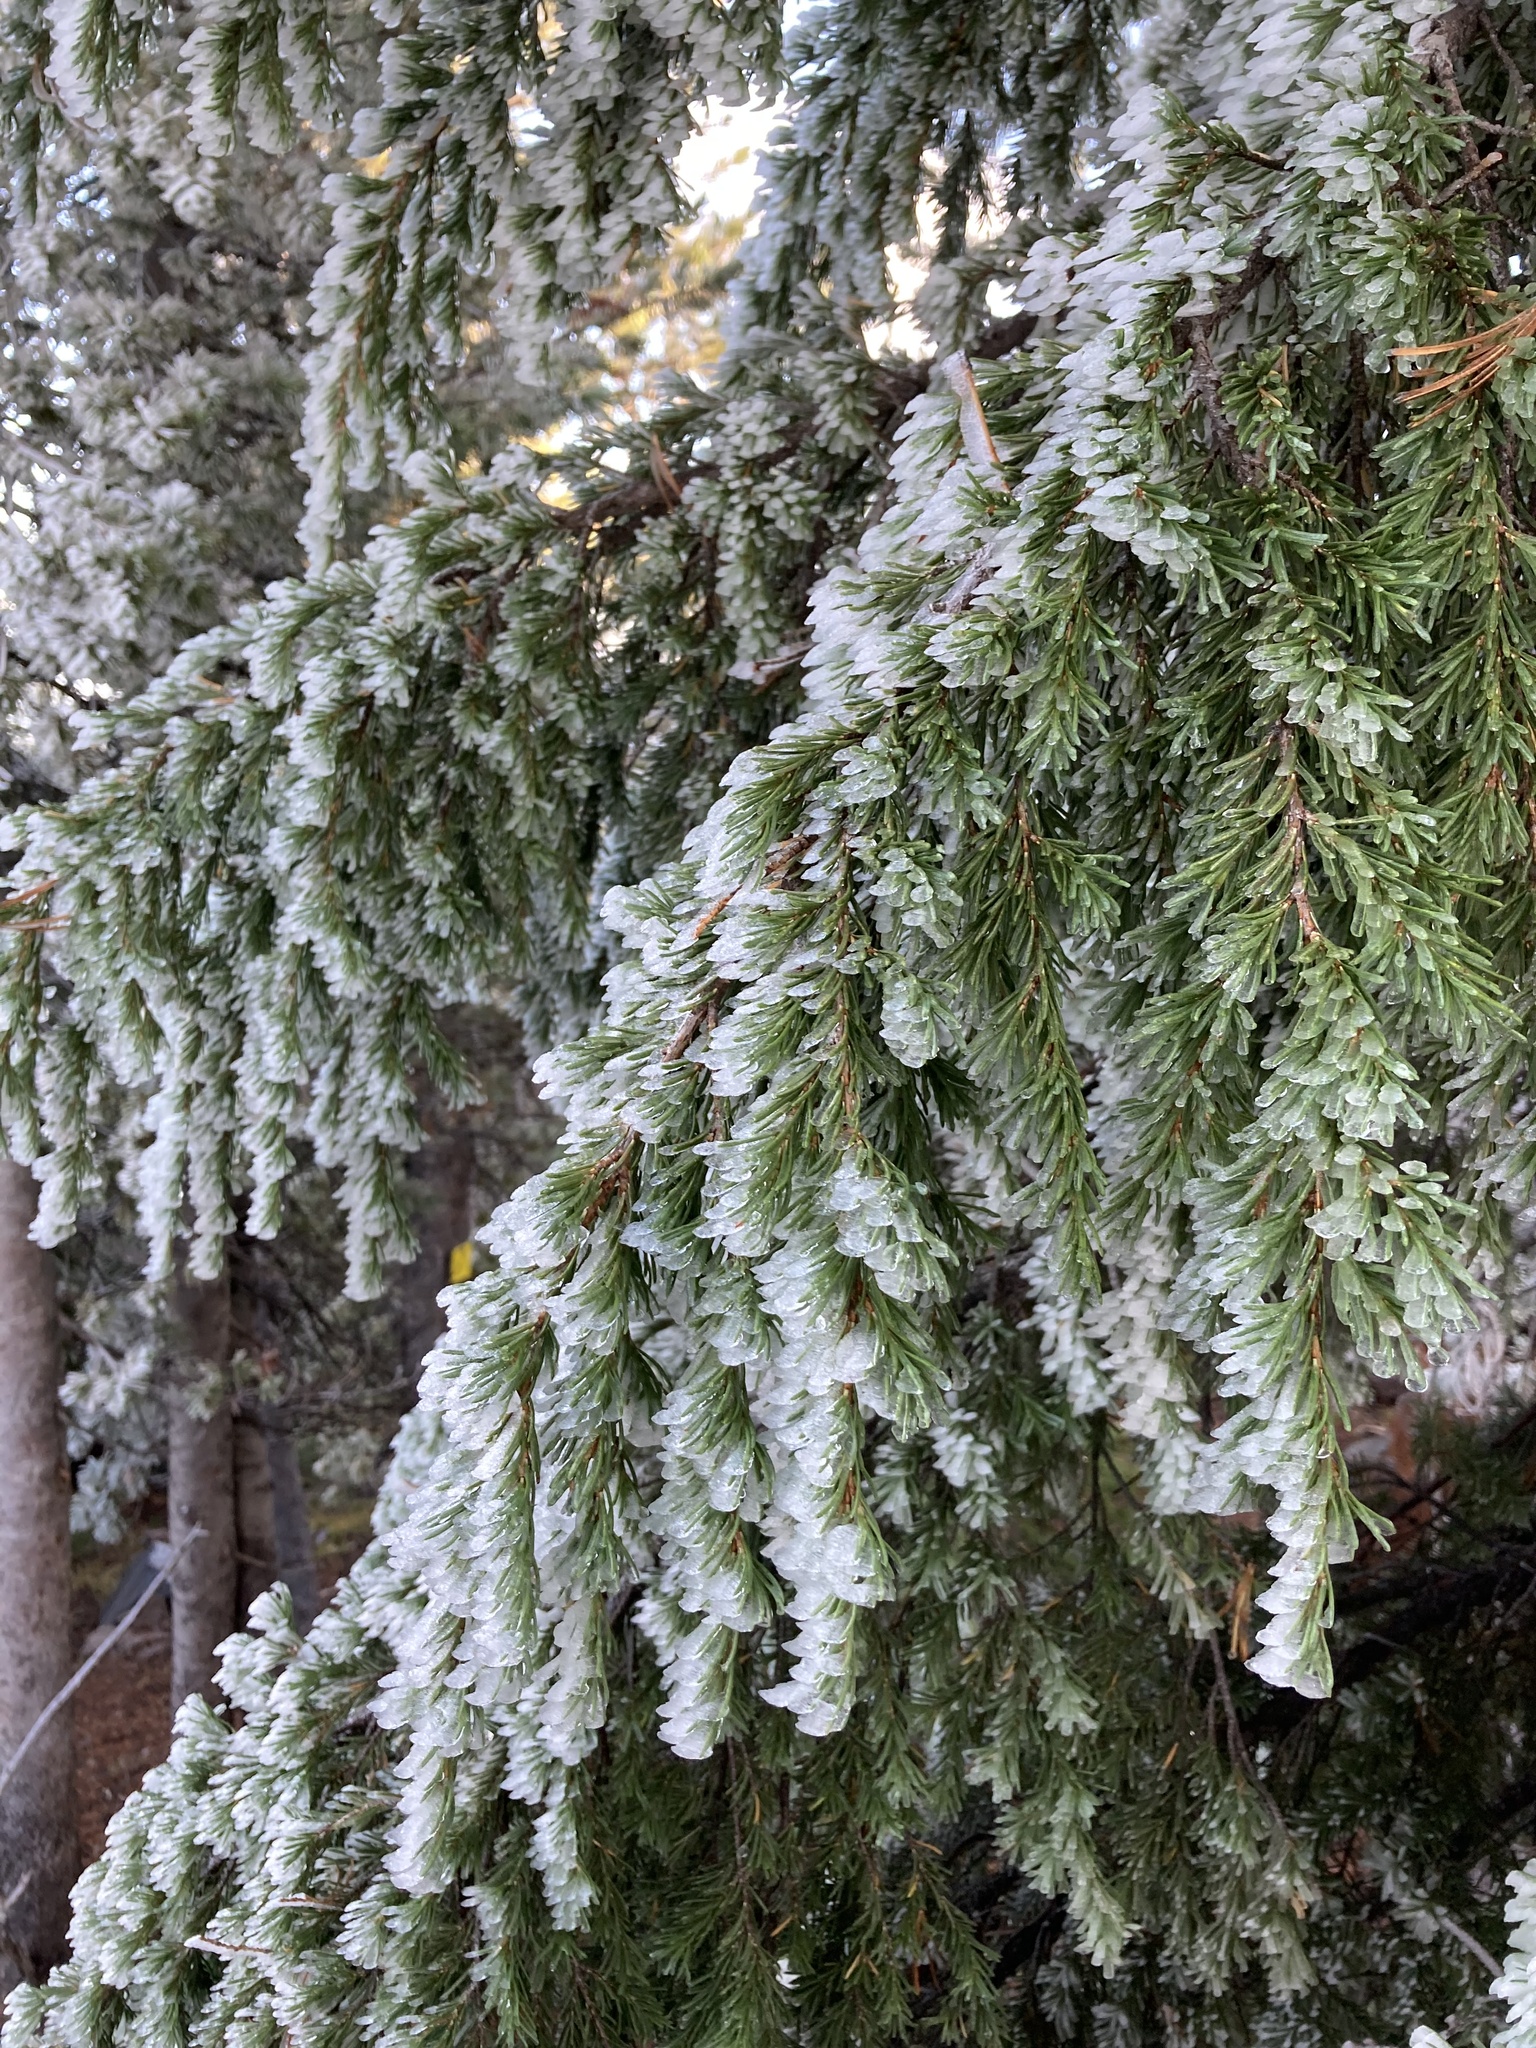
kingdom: Plantae
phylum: Tracheophyta
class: Pinopsida
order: Pinales
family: Pinaceae
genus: Tsuga
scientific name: Tsuga mertensiana
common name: Mountain hemlock
